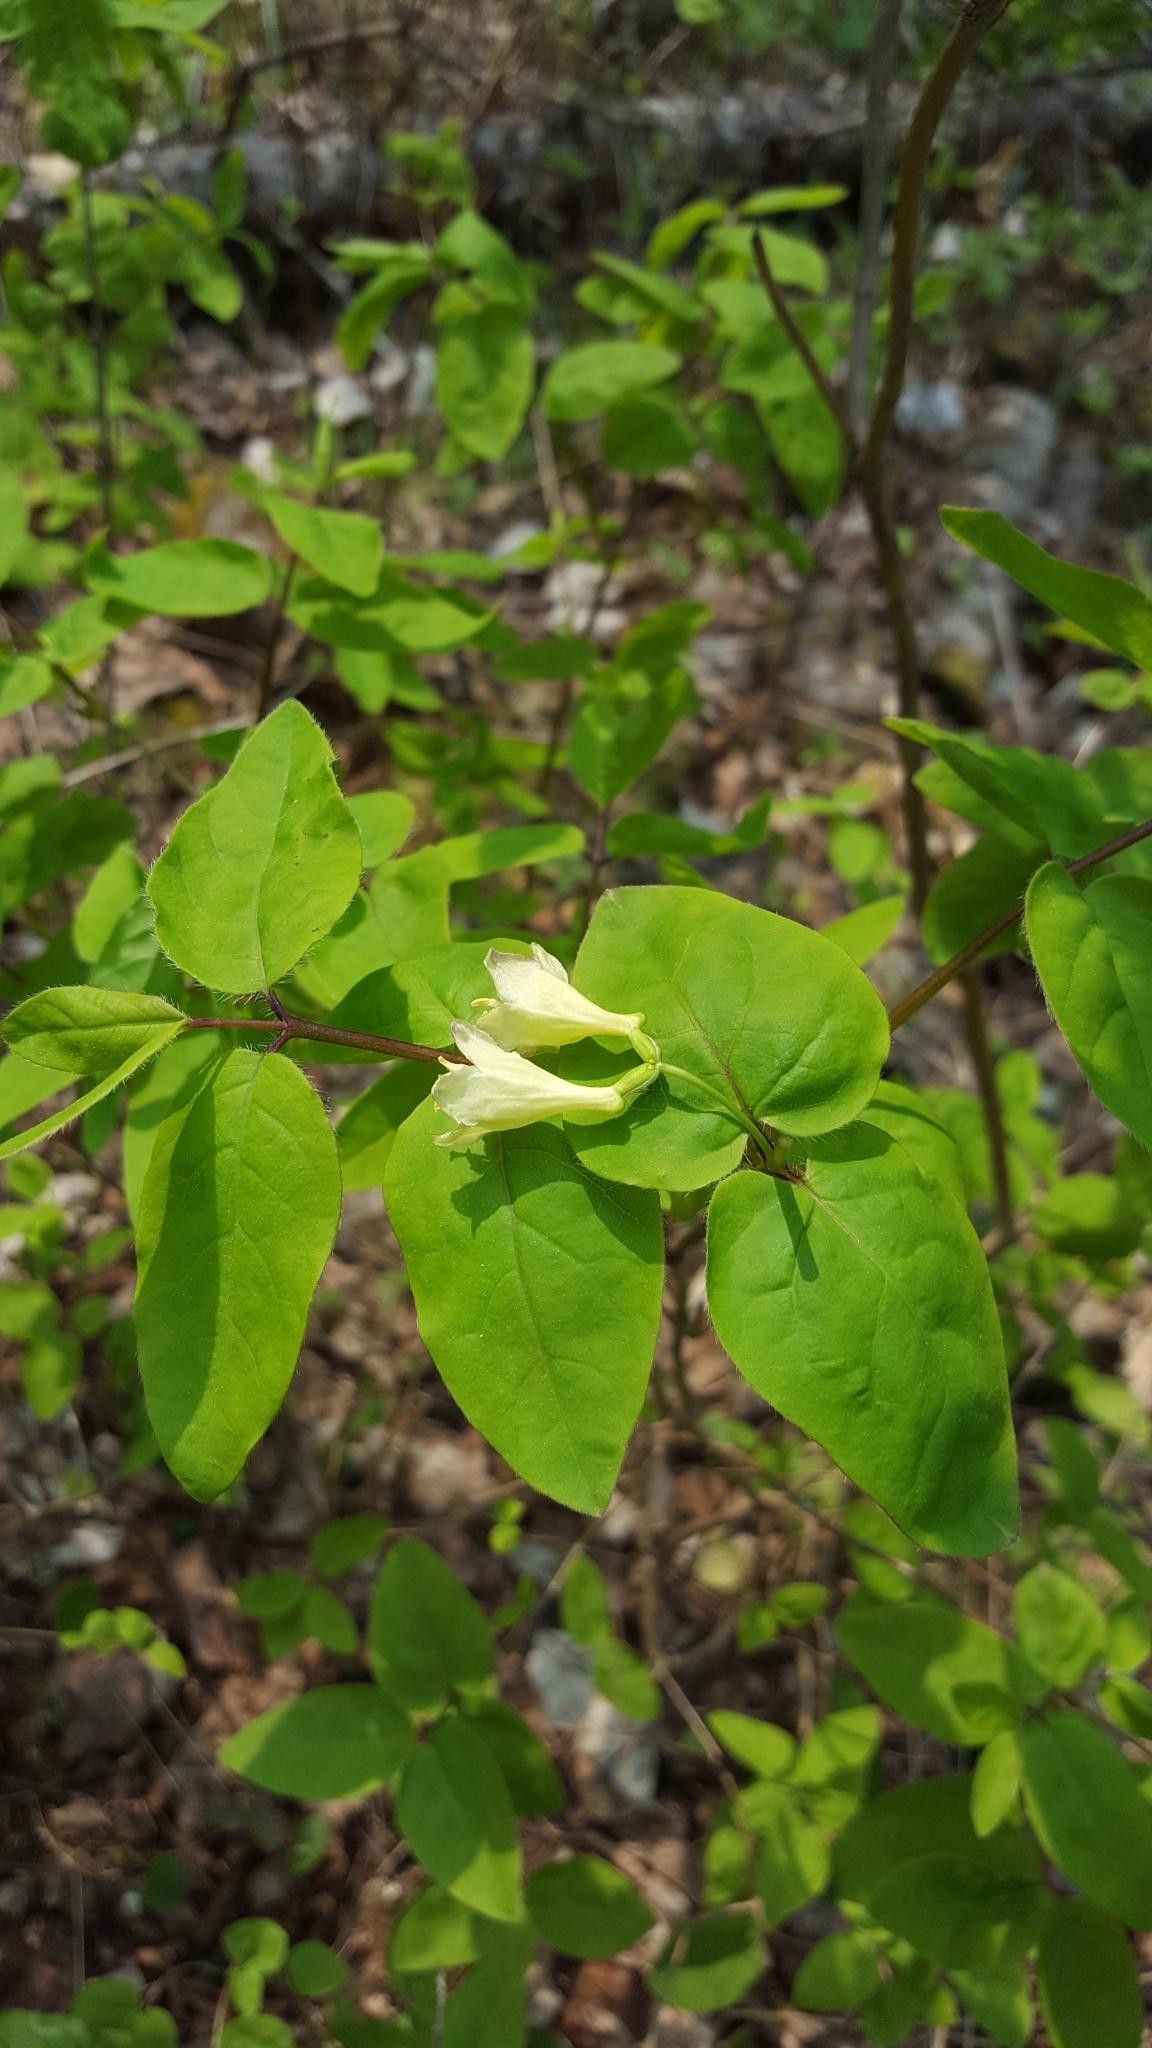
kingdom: Plantae
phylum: Tracheophyta
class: Magnoliopsida
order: Dipsacales
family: Caprifoliaceae
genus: Lonicera
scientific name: Lonicera canadensis
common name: American fly-honeysuckle
